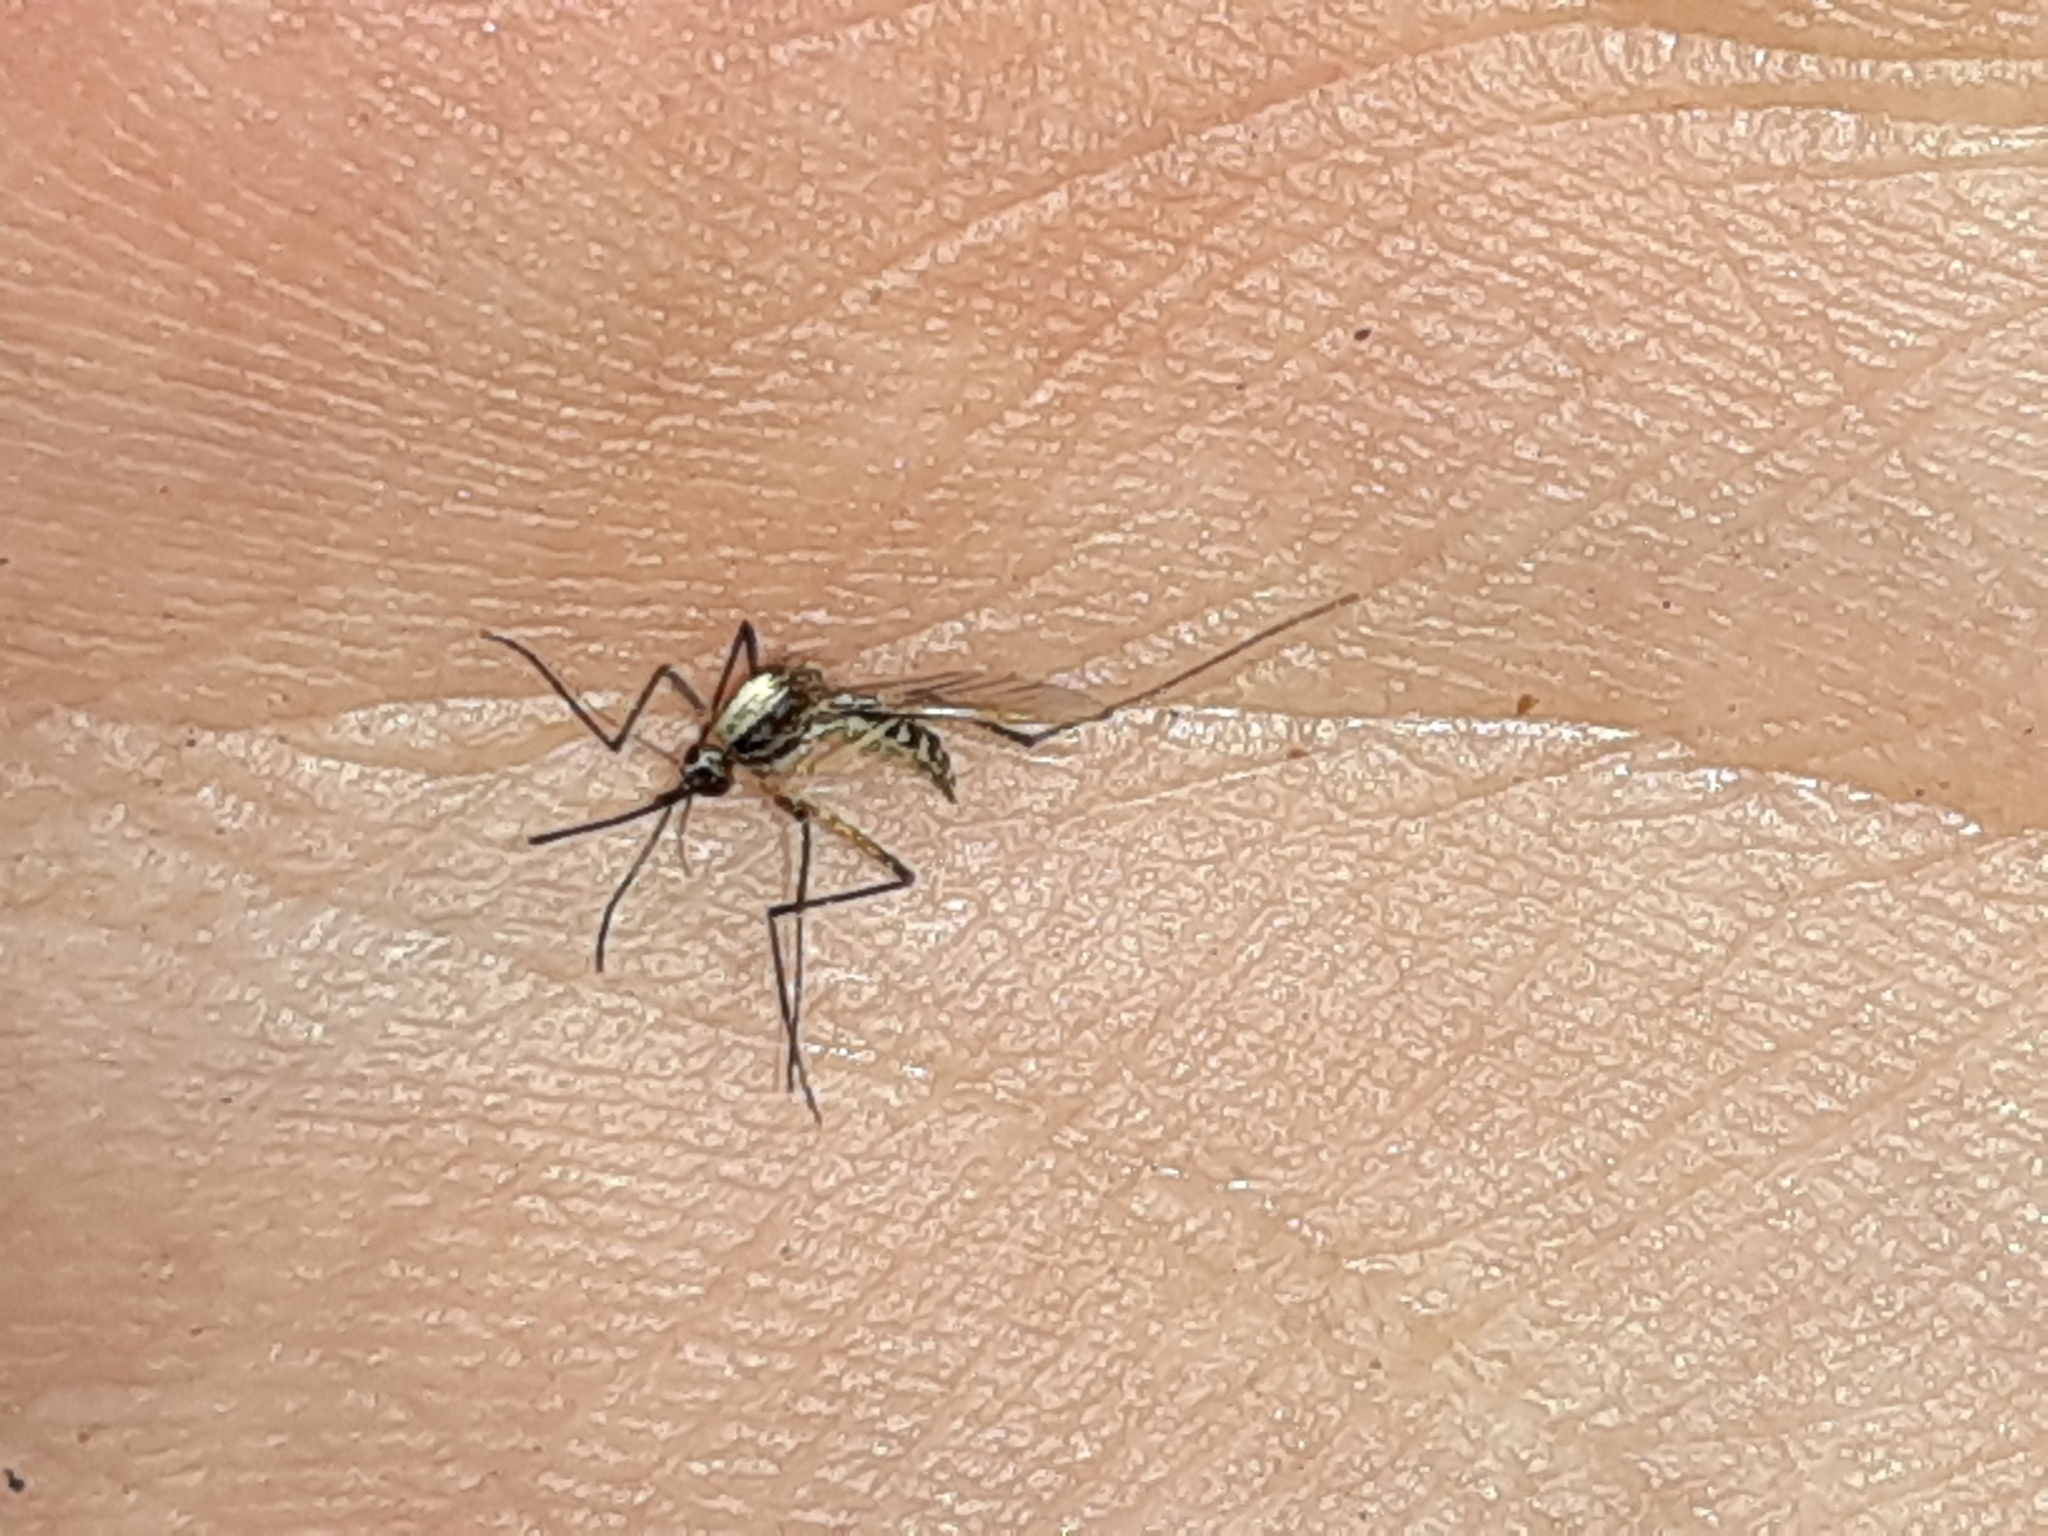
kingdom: Animalia
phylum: Arthropoda
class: Insecta
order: Diptera
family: Culicidae
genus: Aedes
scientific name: Aedes infirmatus
